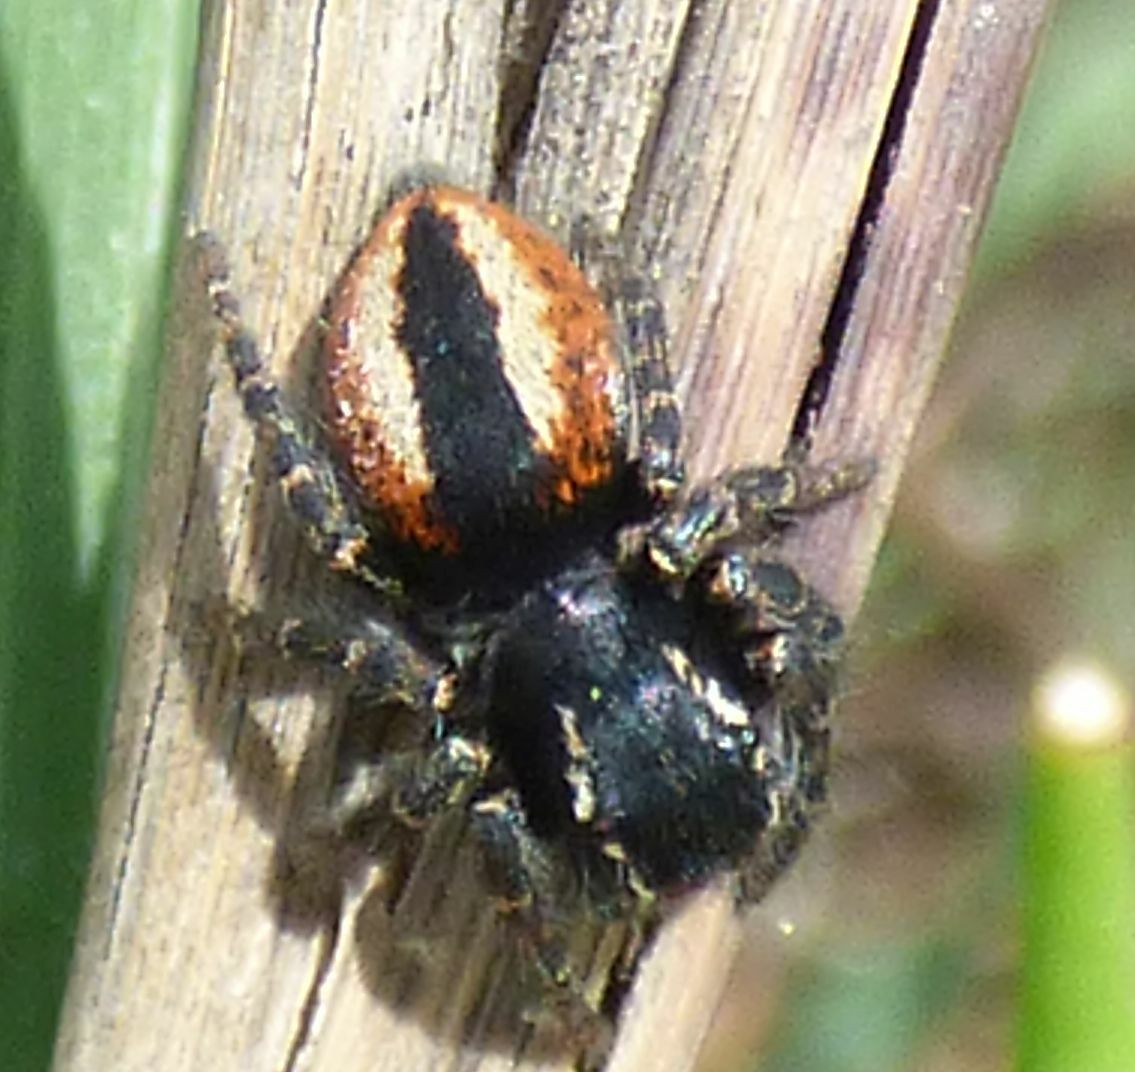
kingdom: Animalia
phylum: Arthropoda
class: Arachnida
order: Araneae
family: Salticidae
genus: Philaeus
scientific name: Philaeus chrysops
